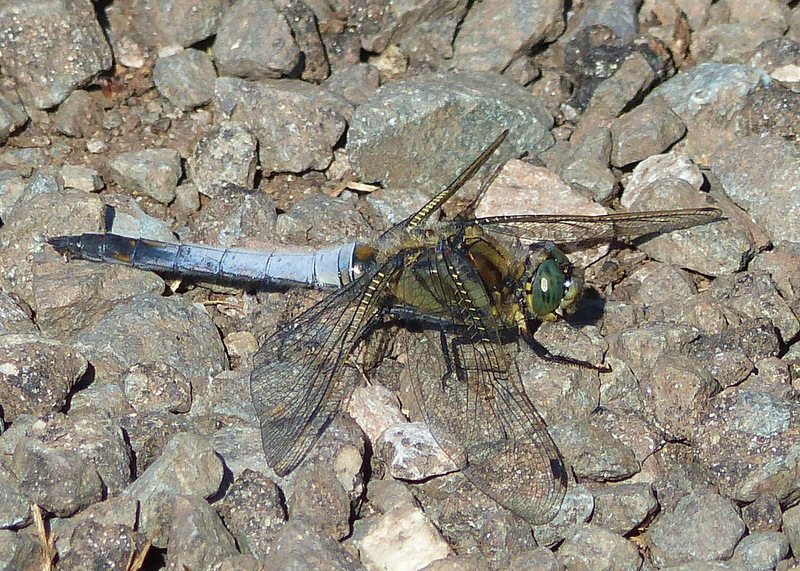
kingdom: Animalia
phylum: Arthropoda
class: Insecta
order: Odonata
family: Libellulidae
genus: Orthetrum
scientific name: Orthetrum cancellatum
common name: Black-tailed skimmer
